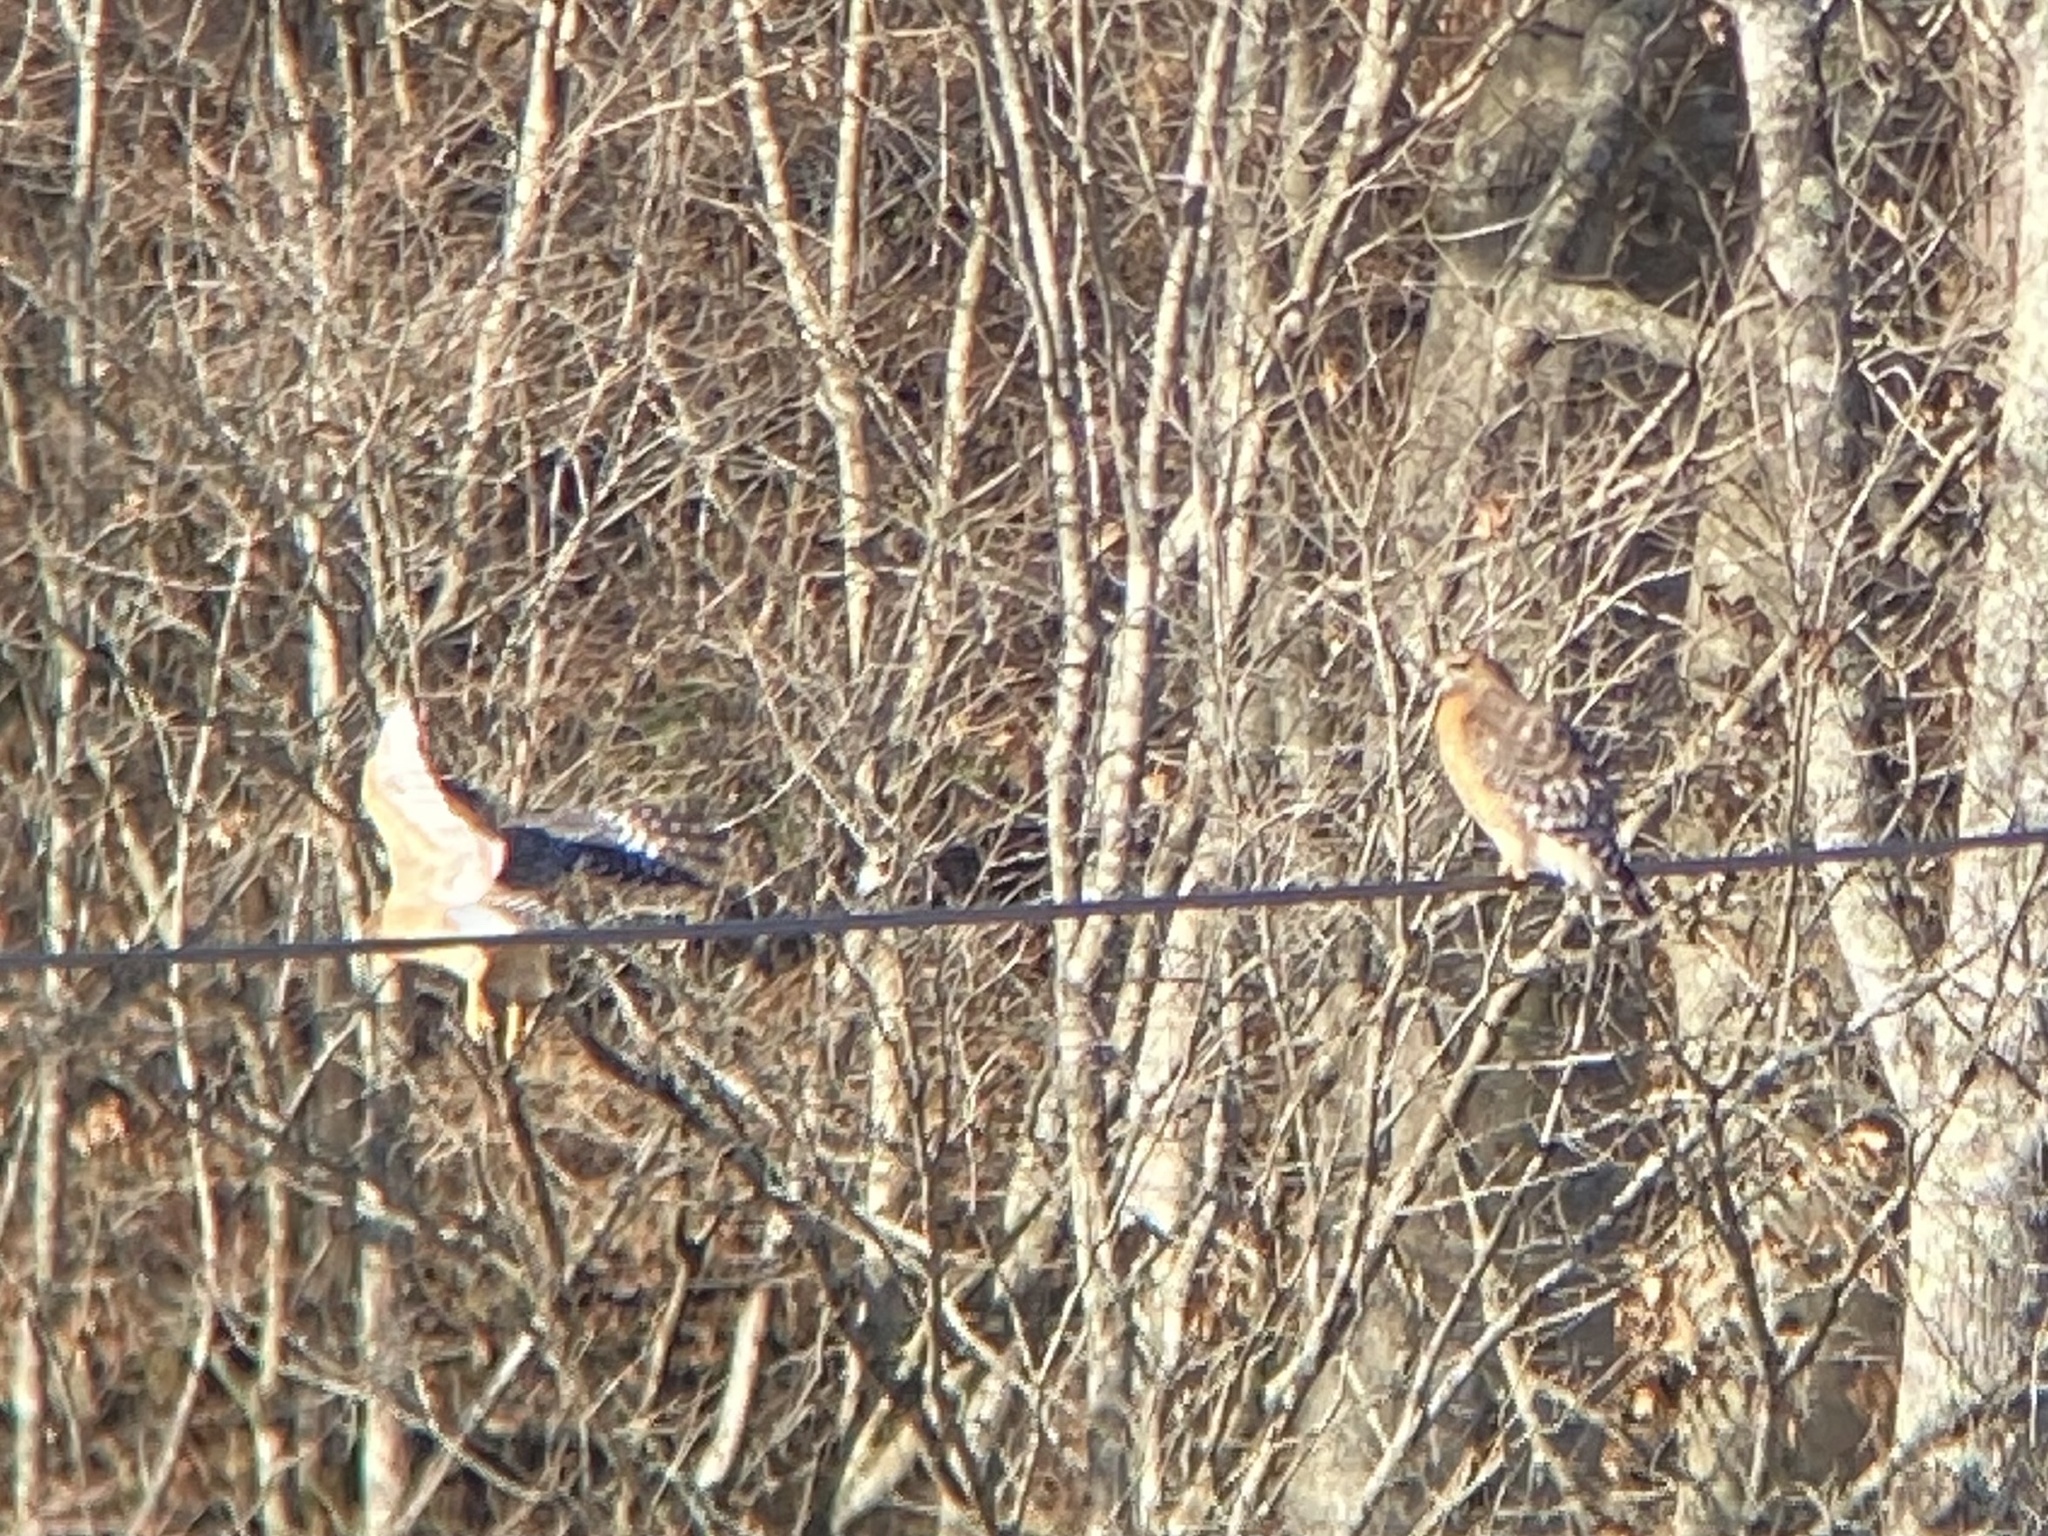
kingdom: Animalia
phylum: Chordata
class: Aves
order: Accipitriformes
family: Accipitridae
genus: Buteo
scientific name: Buteo lineatus
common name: Red-shouldered hawk
